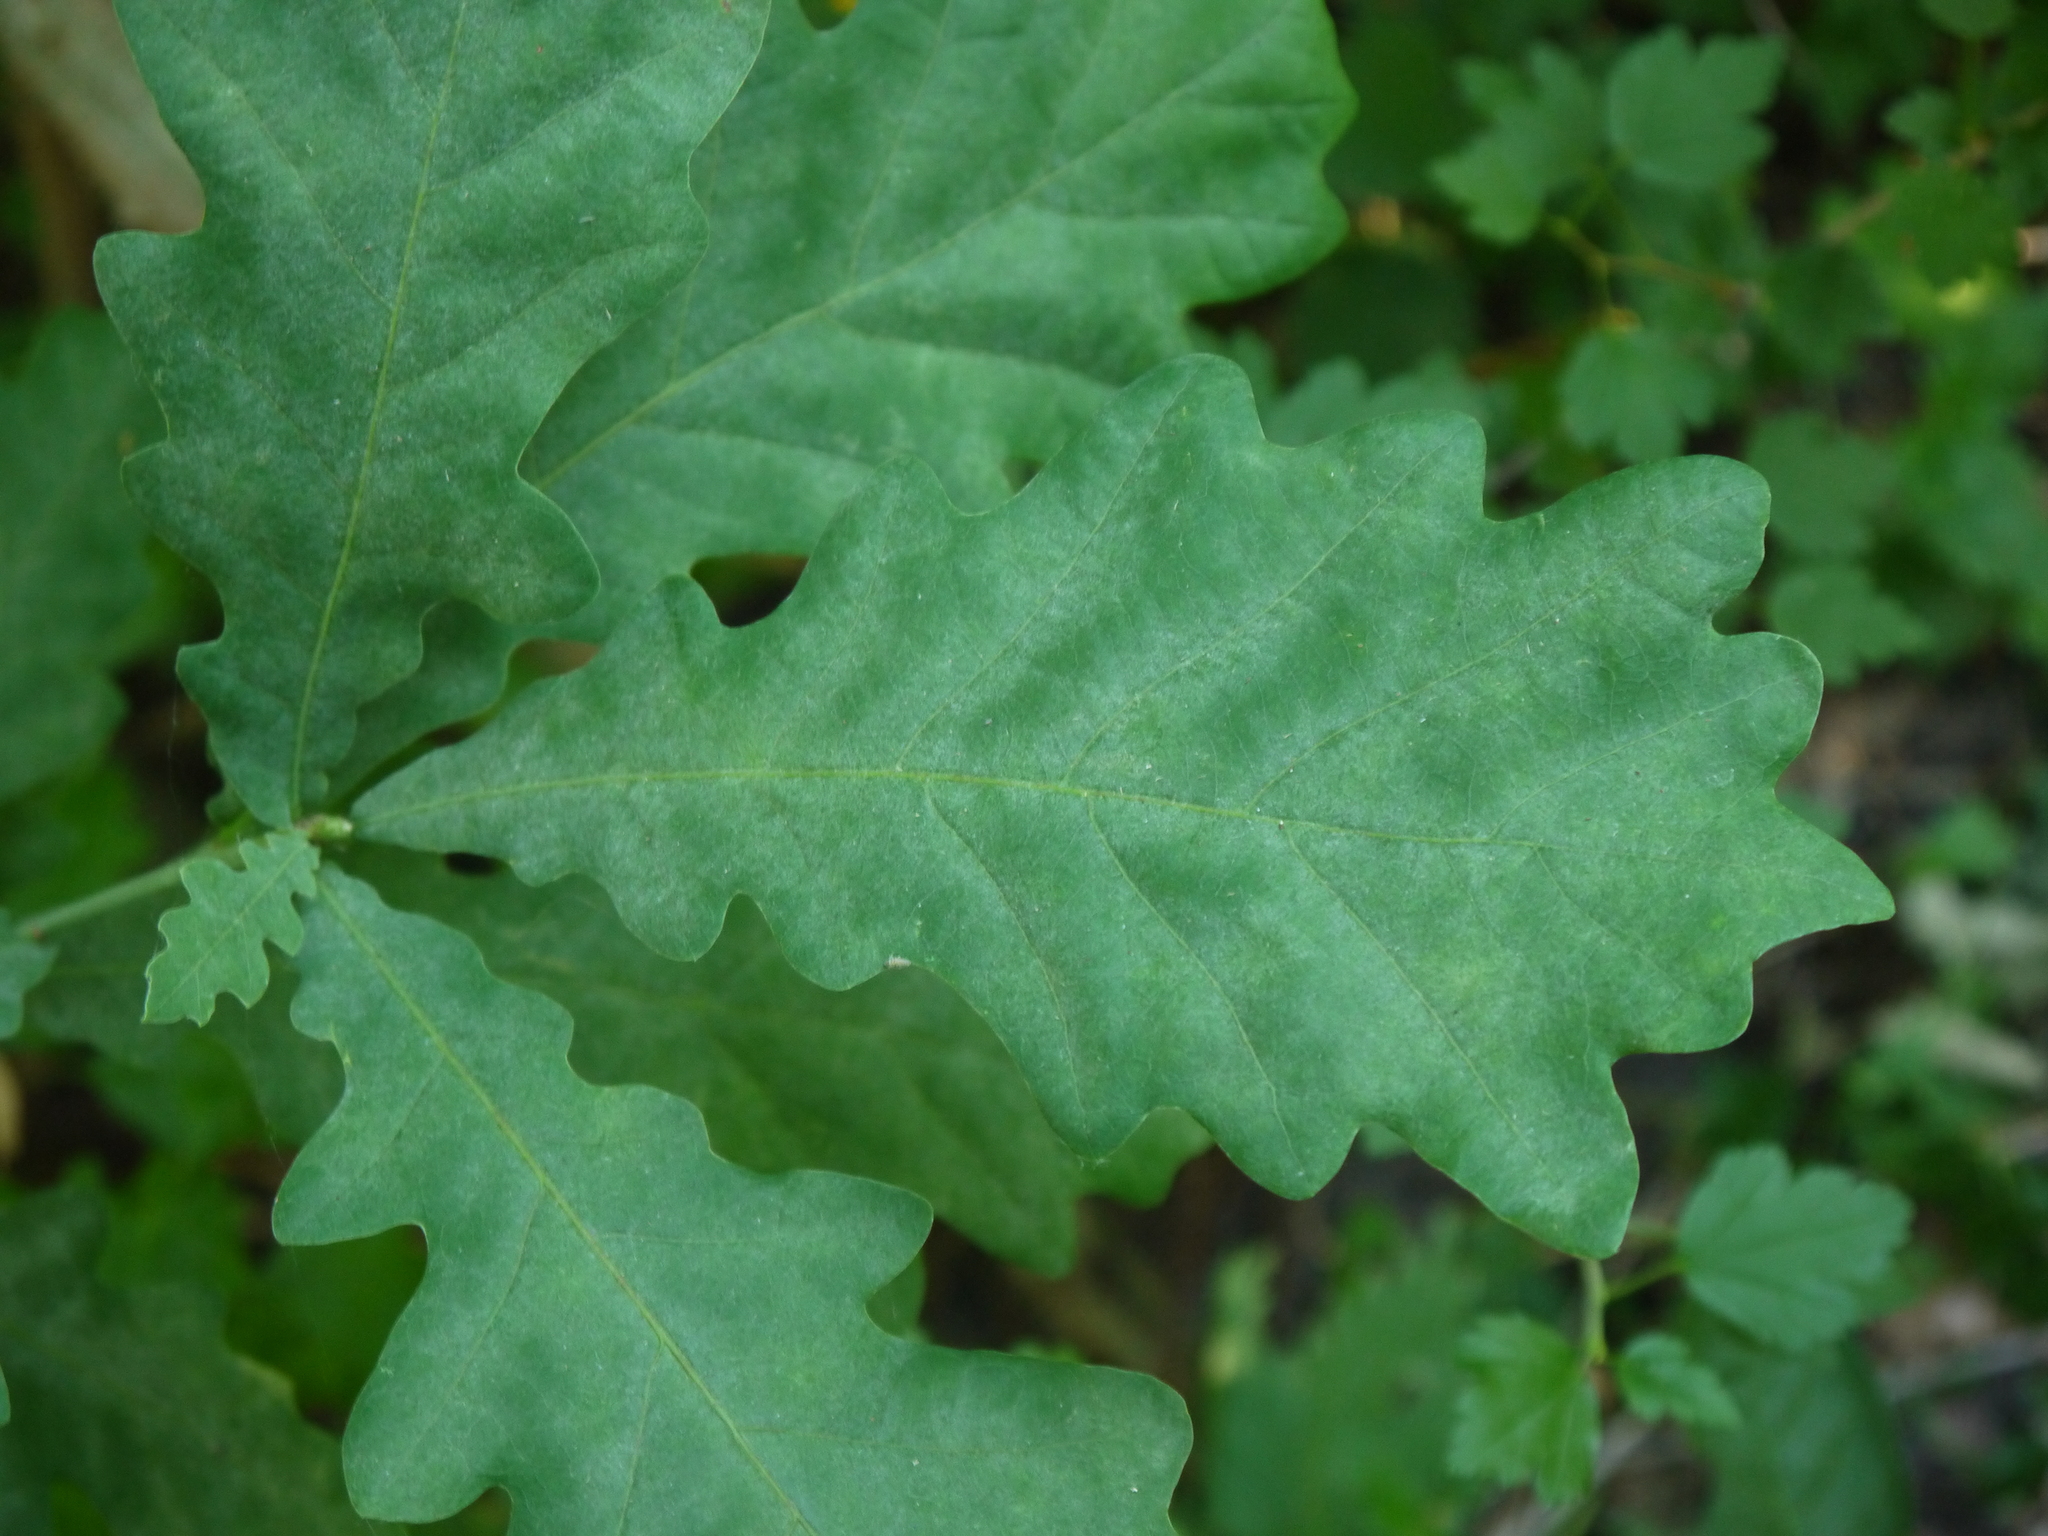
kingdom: Plantae
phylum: Tracheophyta
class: Magnoliopsida
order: Fagales
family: Fagaceae
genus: Quercus
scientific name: Quercus robur
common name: Pedunculate oak
